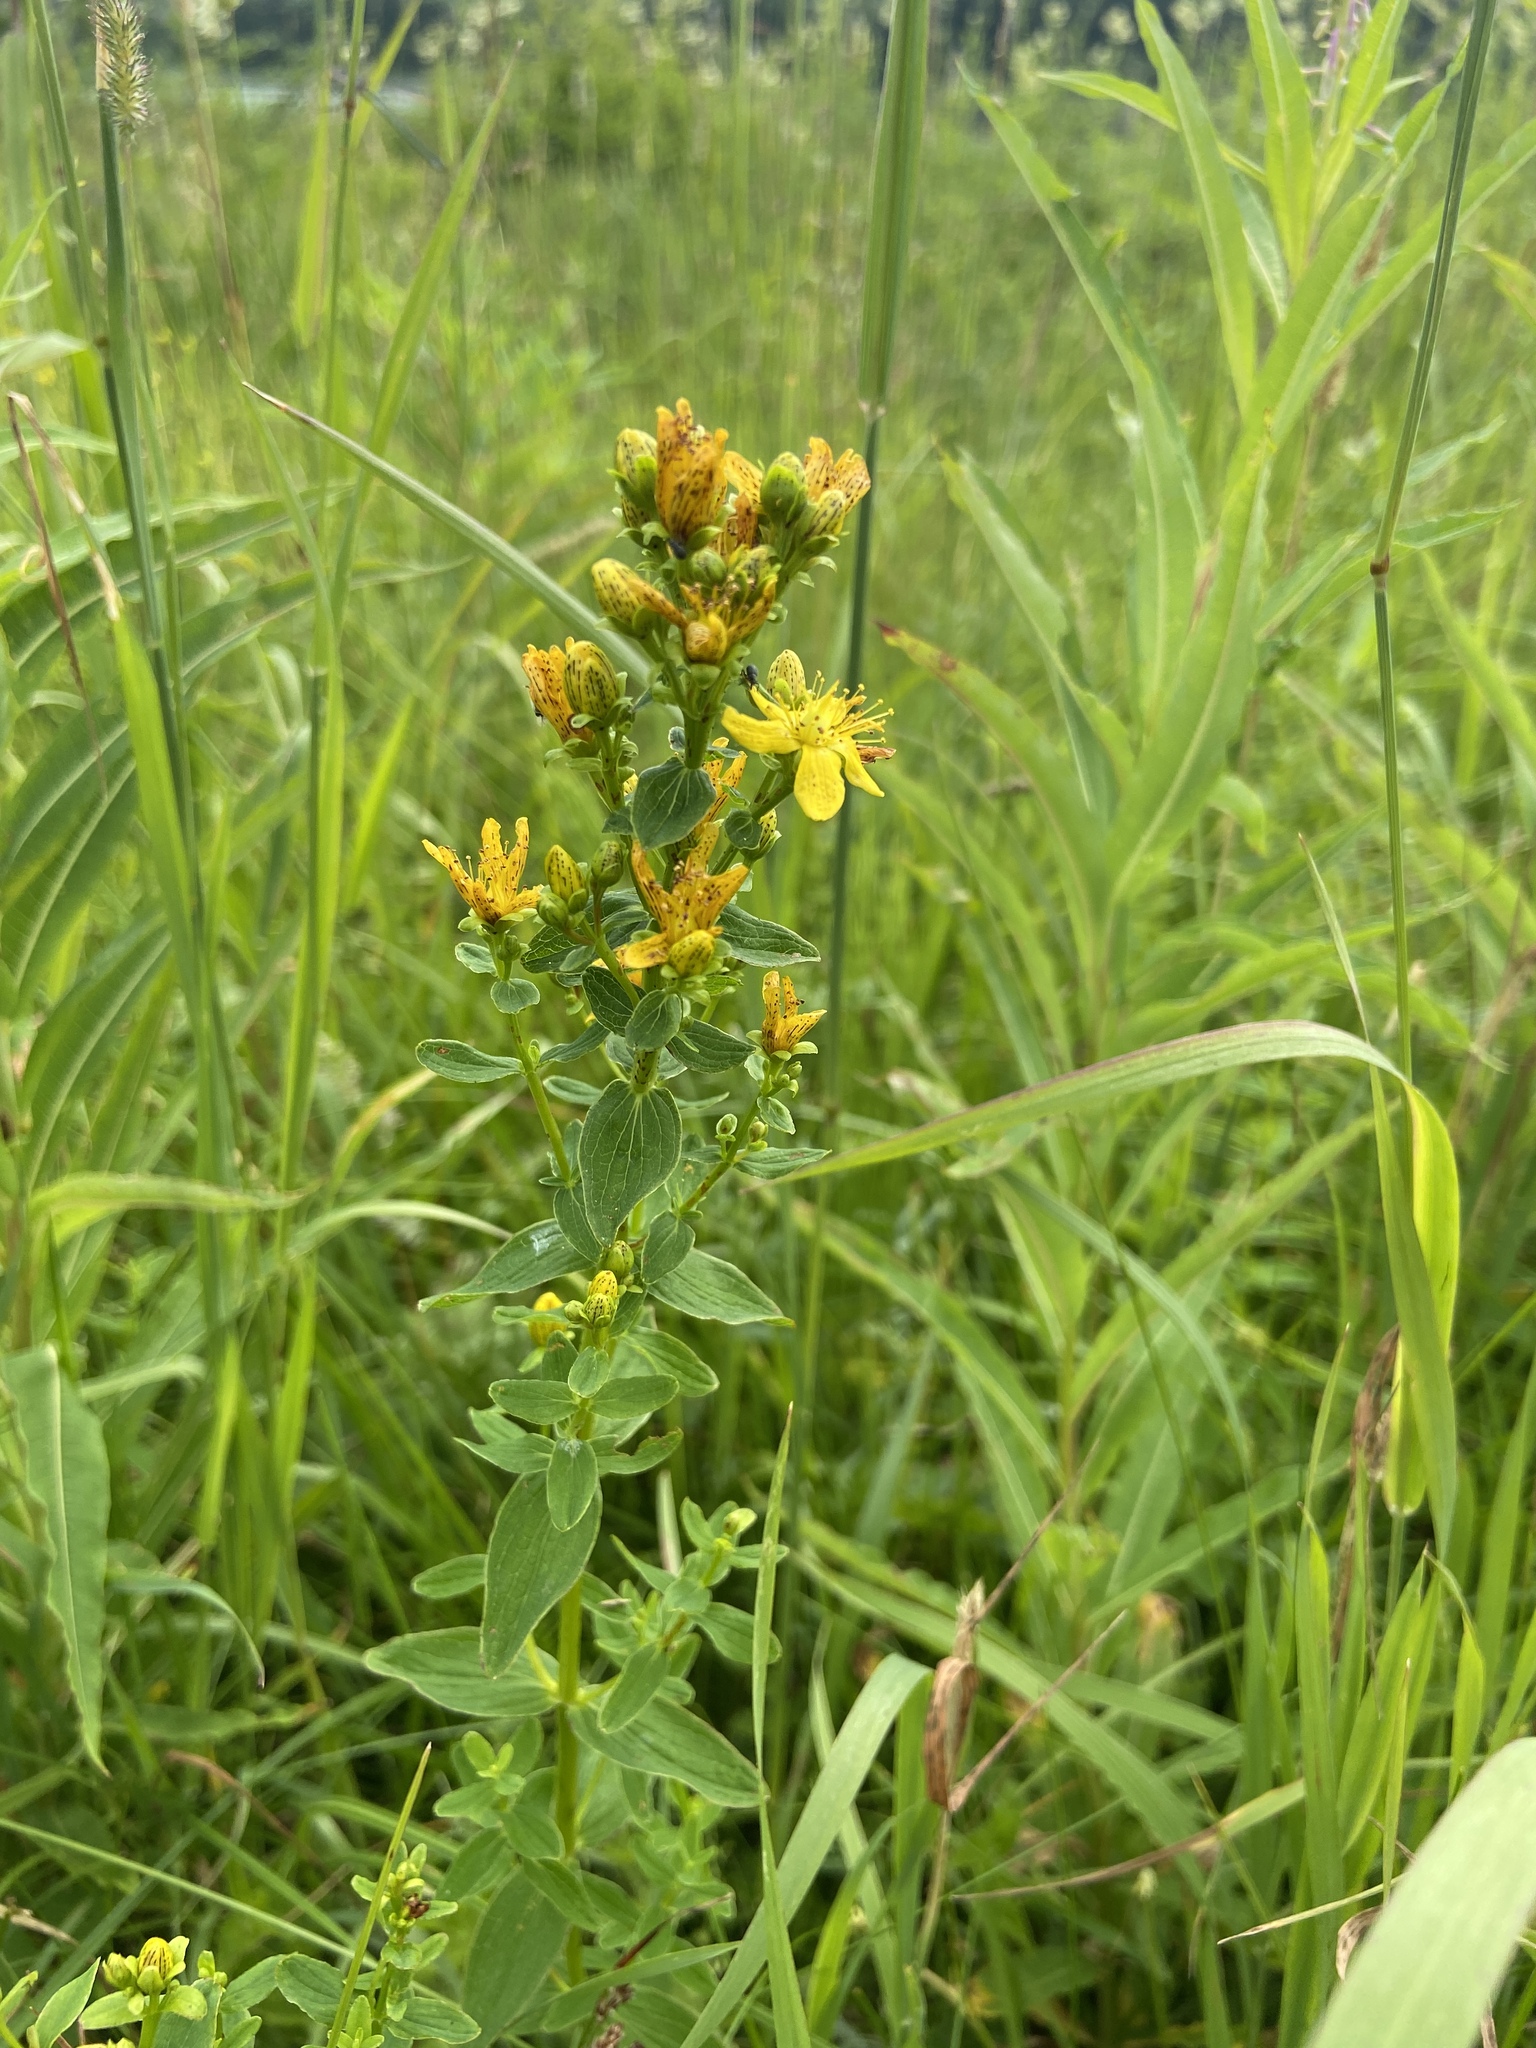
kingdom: Plantae
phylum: Tracheophyta
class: Magnoliopsida
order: Malpighiales
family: Hypericaceae
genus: Hypericum
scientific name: Hypericum maculatum
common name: Imperforate st. john's-wort
